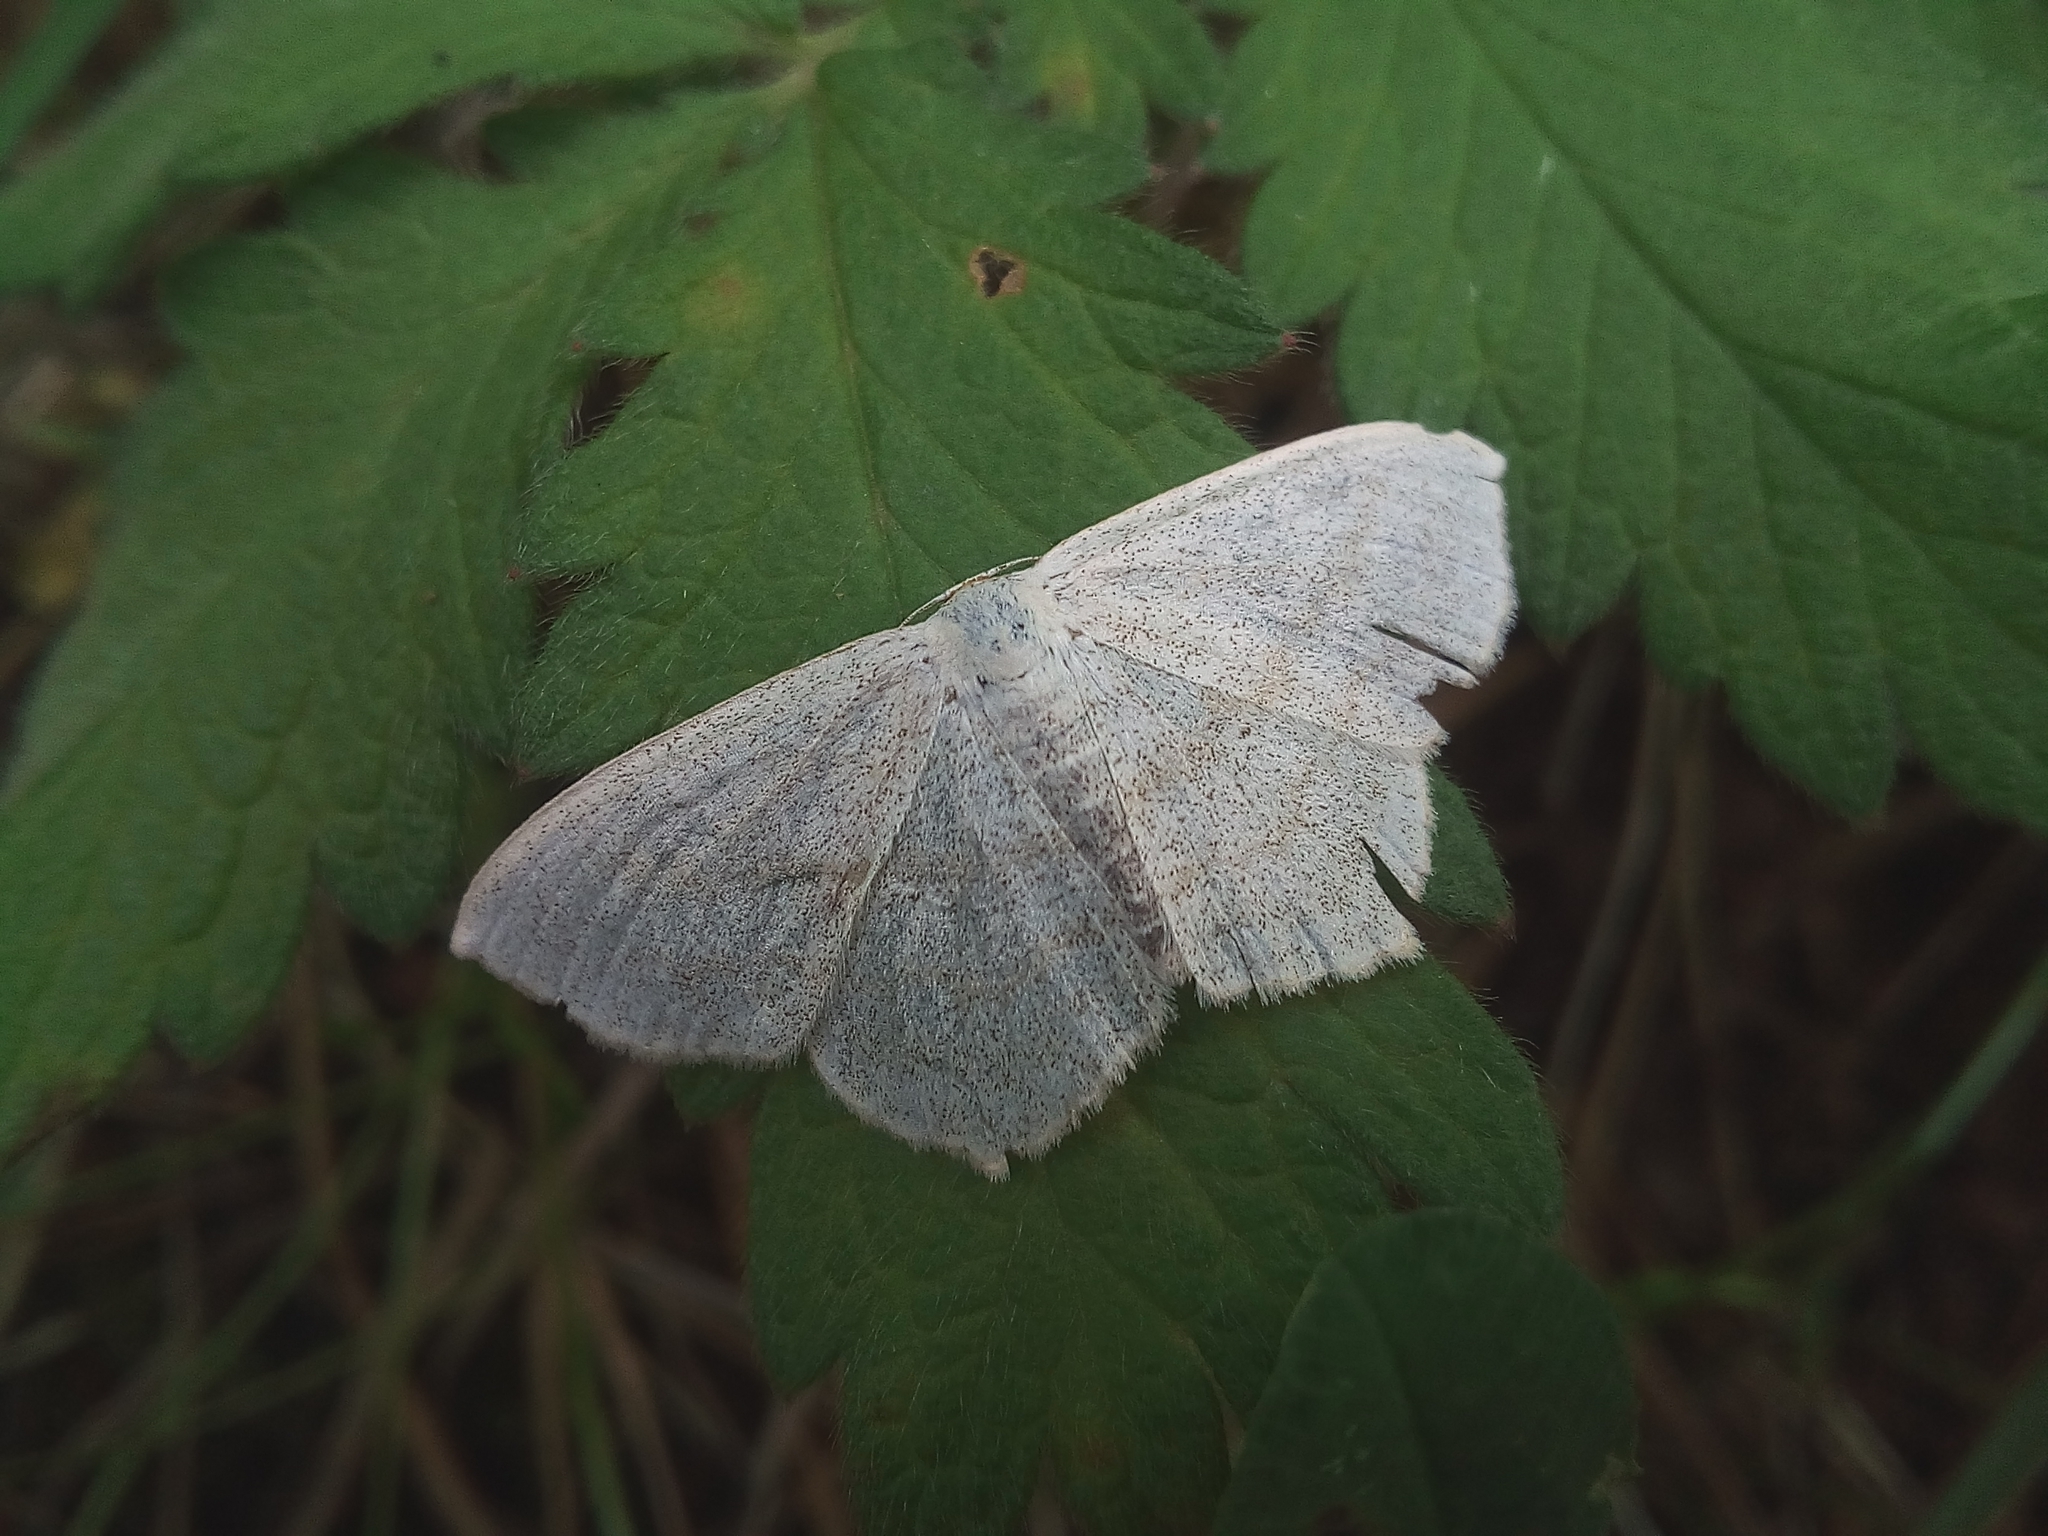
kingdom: Animalia
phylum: Arthropoda
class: Insecta
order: Lepidoptera
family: Geometridae
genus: Scopula
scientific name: Scopula nigropunctata
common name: Sub-angled wave
